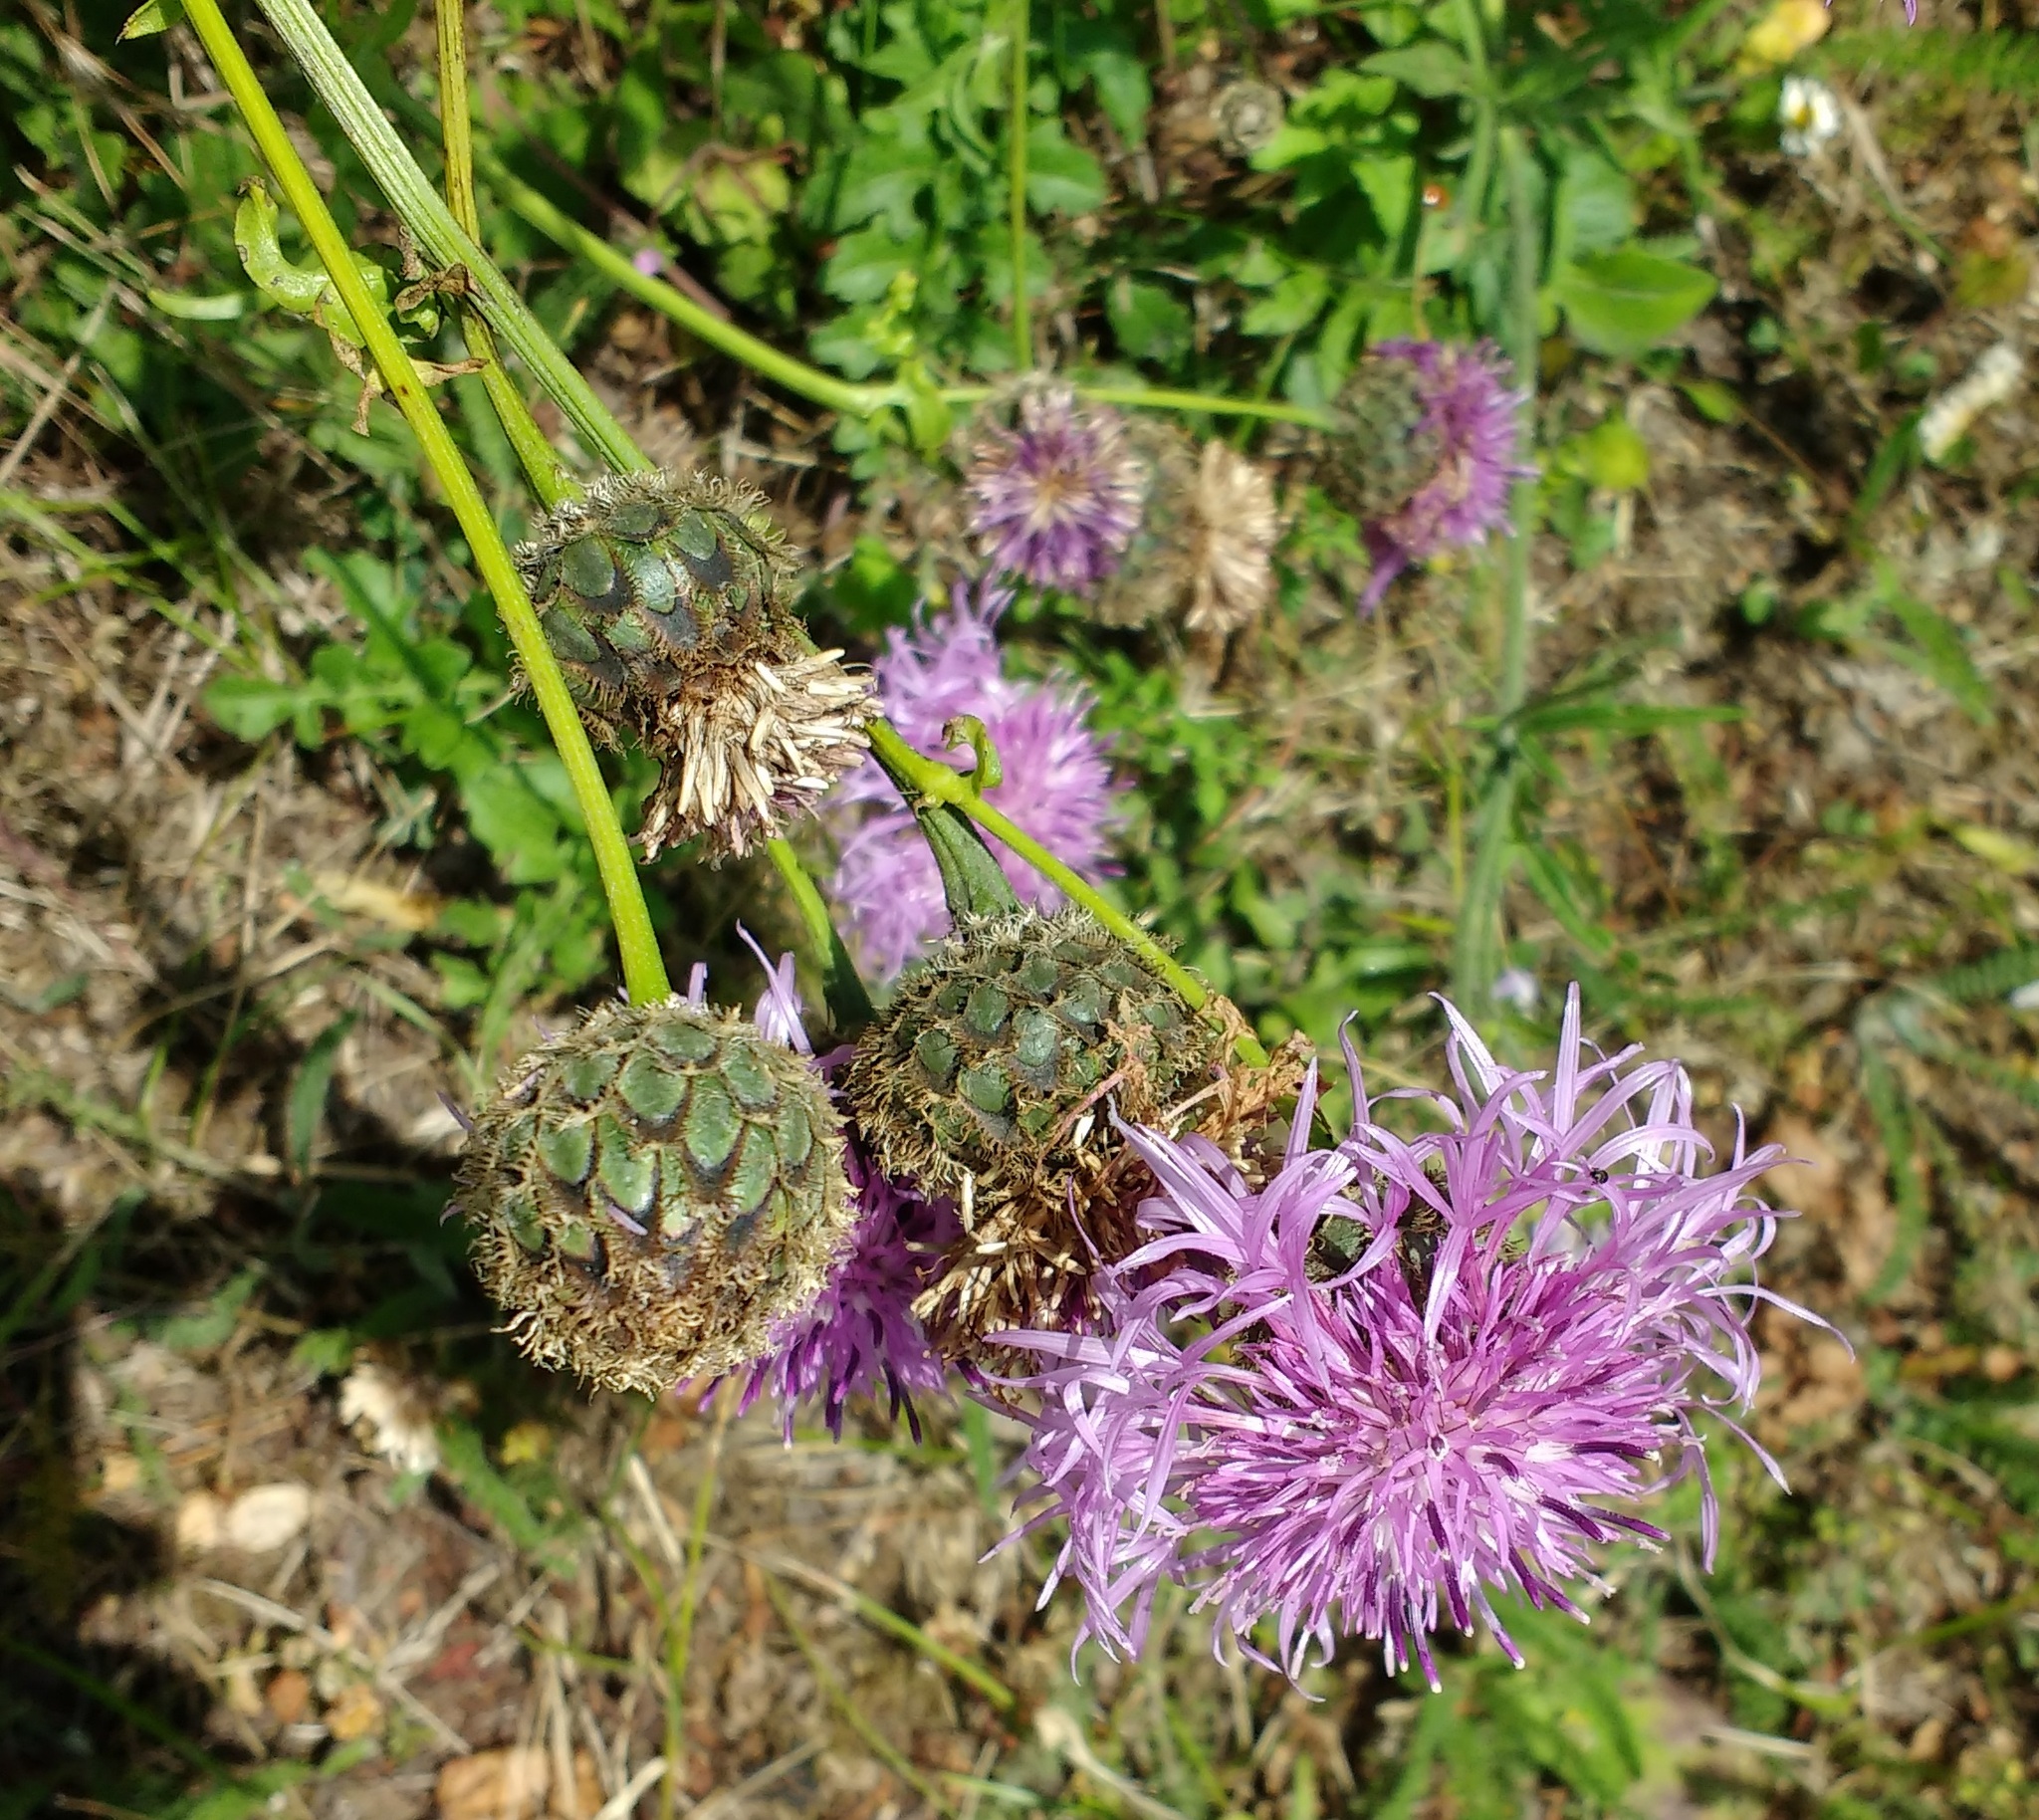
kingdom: Plantae
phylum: Tracheophyta
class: Magnoliopsida
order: Asterales
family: Asteraceae
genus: Centaurea
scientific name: Centaurea scabiosa
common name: Greater knapweed
